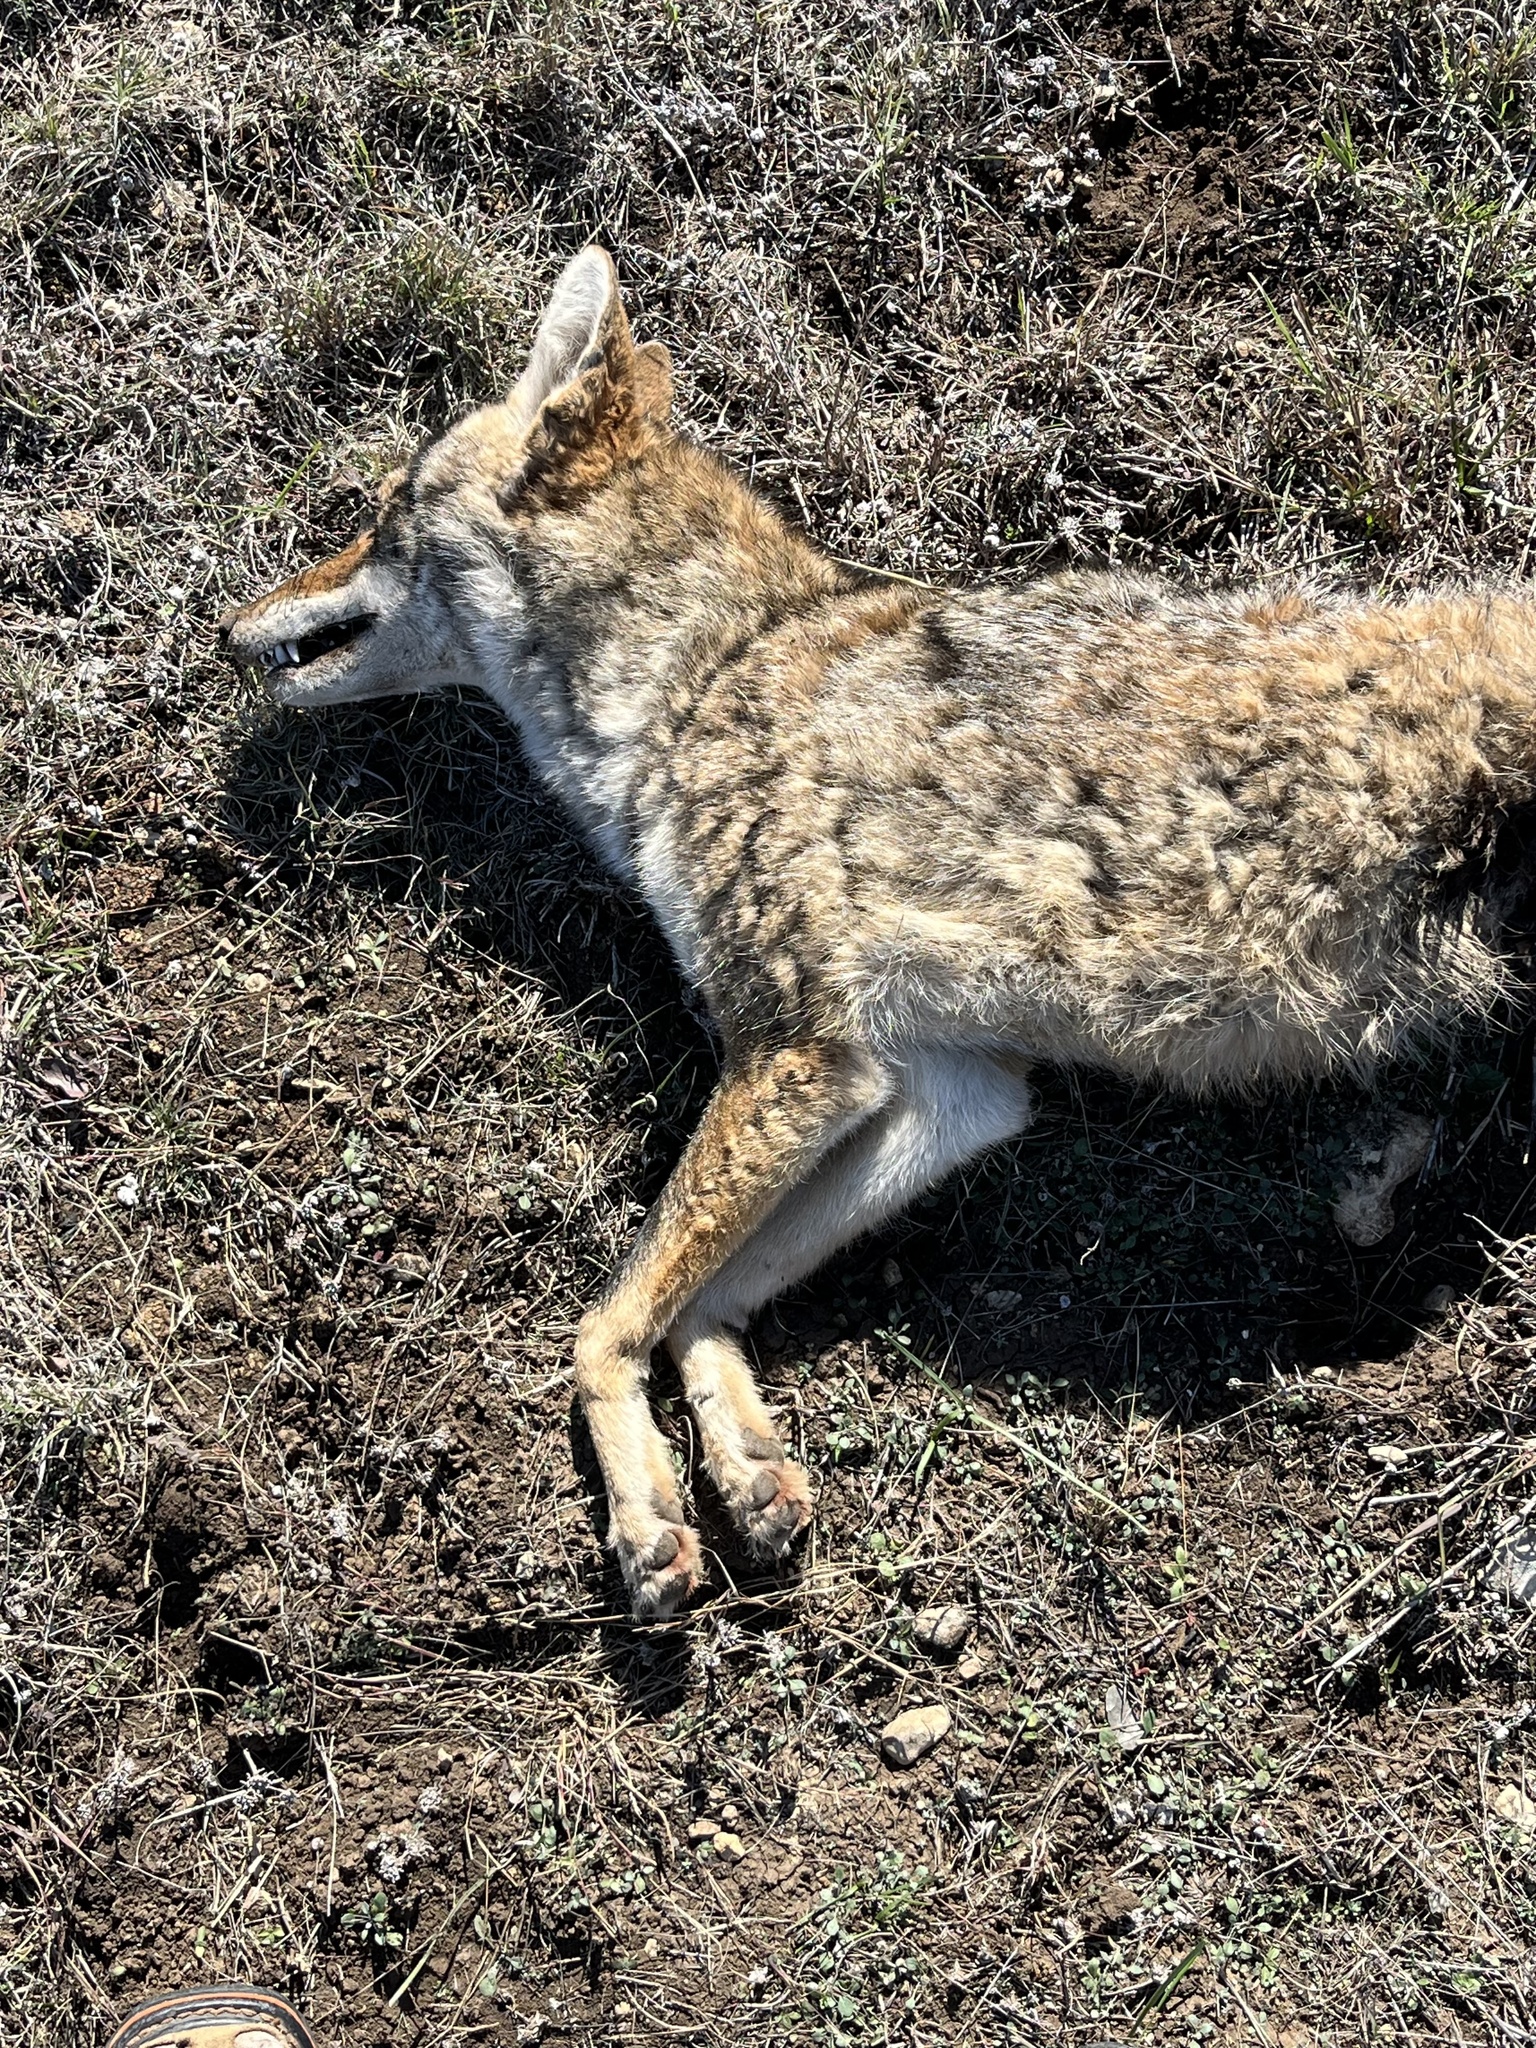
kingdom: Animalia
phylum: Chordata
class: Mammalia
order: Carnivora
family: Canidae
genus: Canis
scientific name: Canis latrans
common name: Coyote
